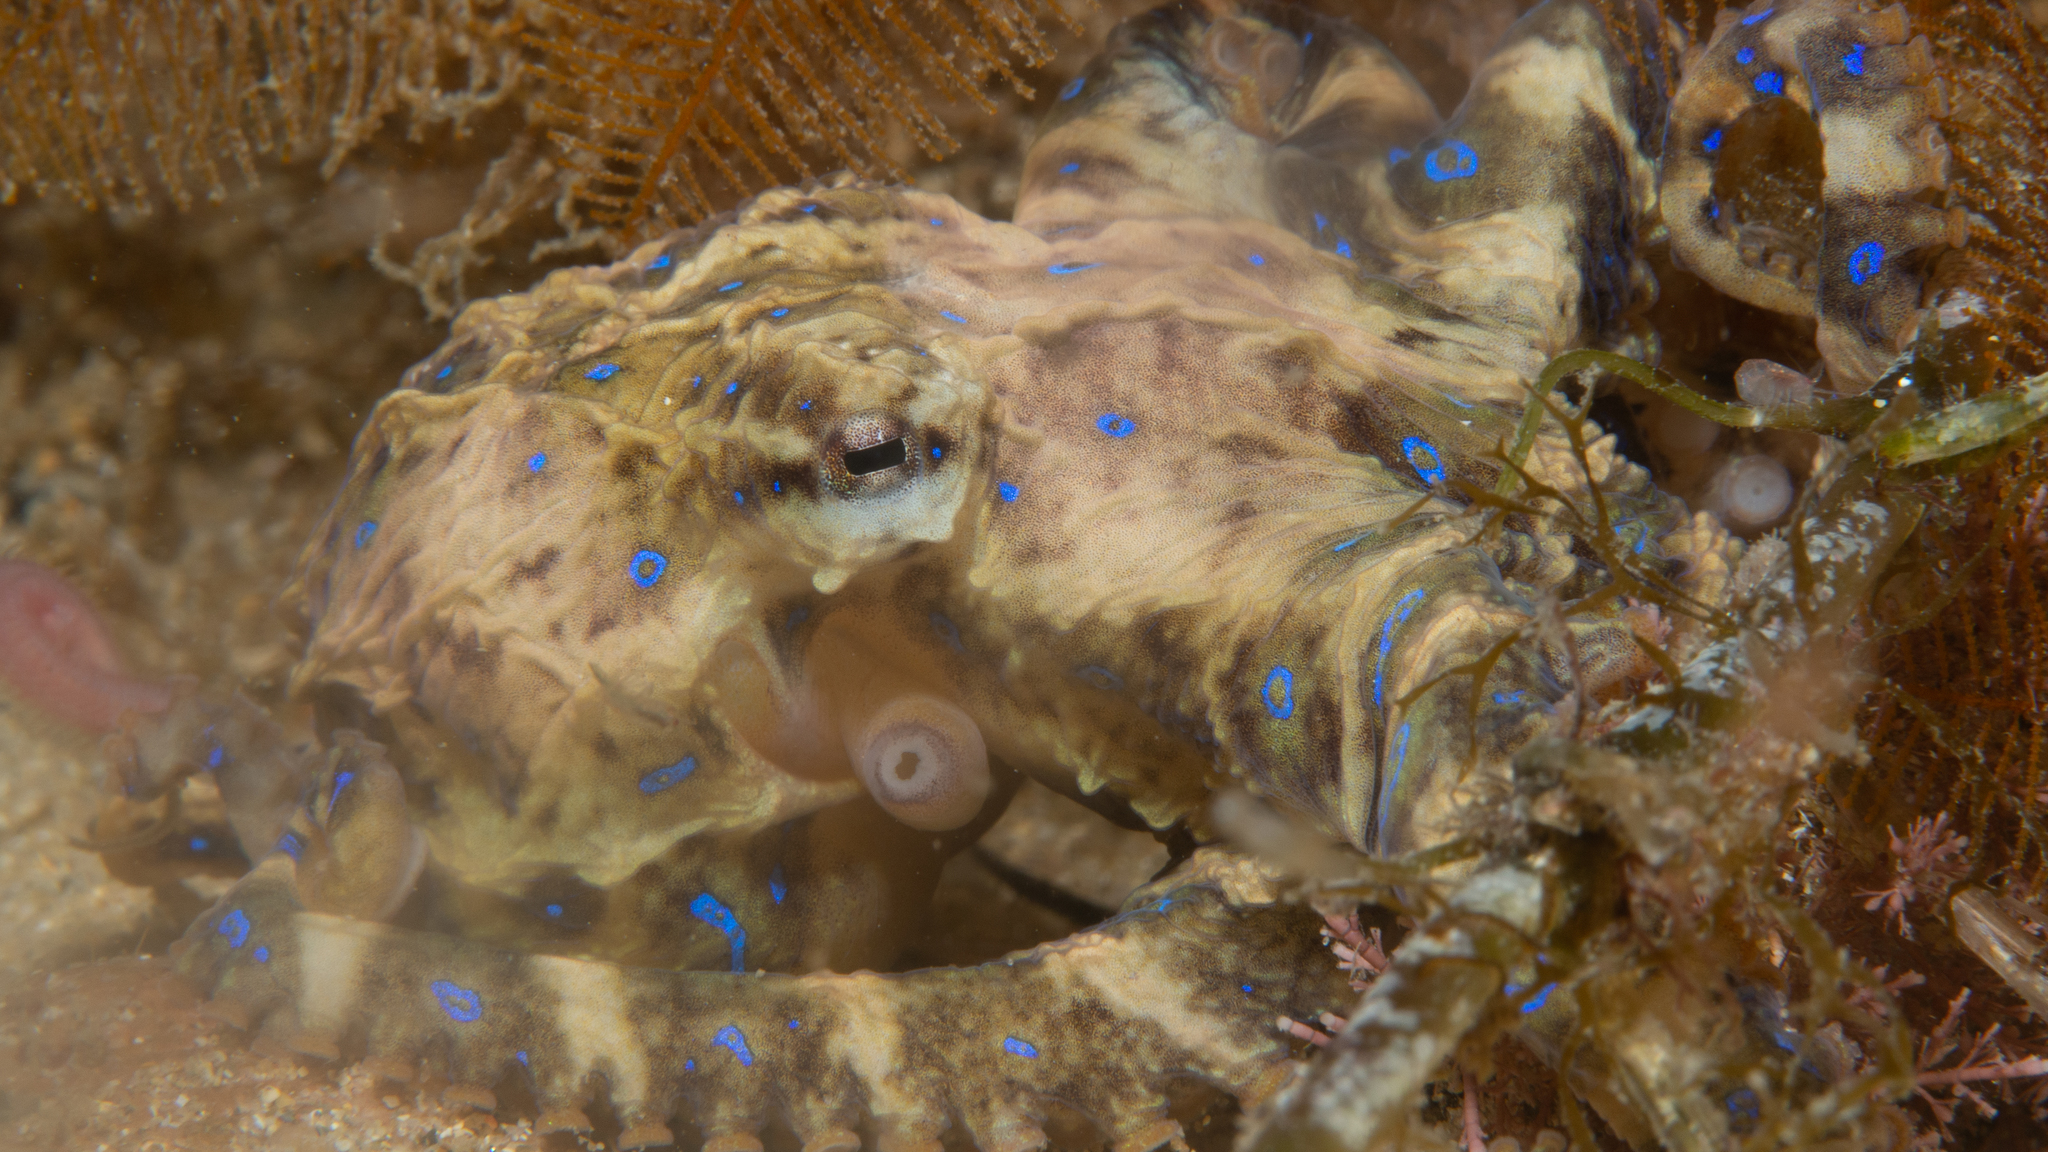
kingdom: Animalia
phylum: Mollusca
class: Cephalopoda
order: Octopoda
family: Octopodidae
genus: Hapalochlaena
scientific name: Hapalochlaena maculosa
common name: Blue-ringed octopus
